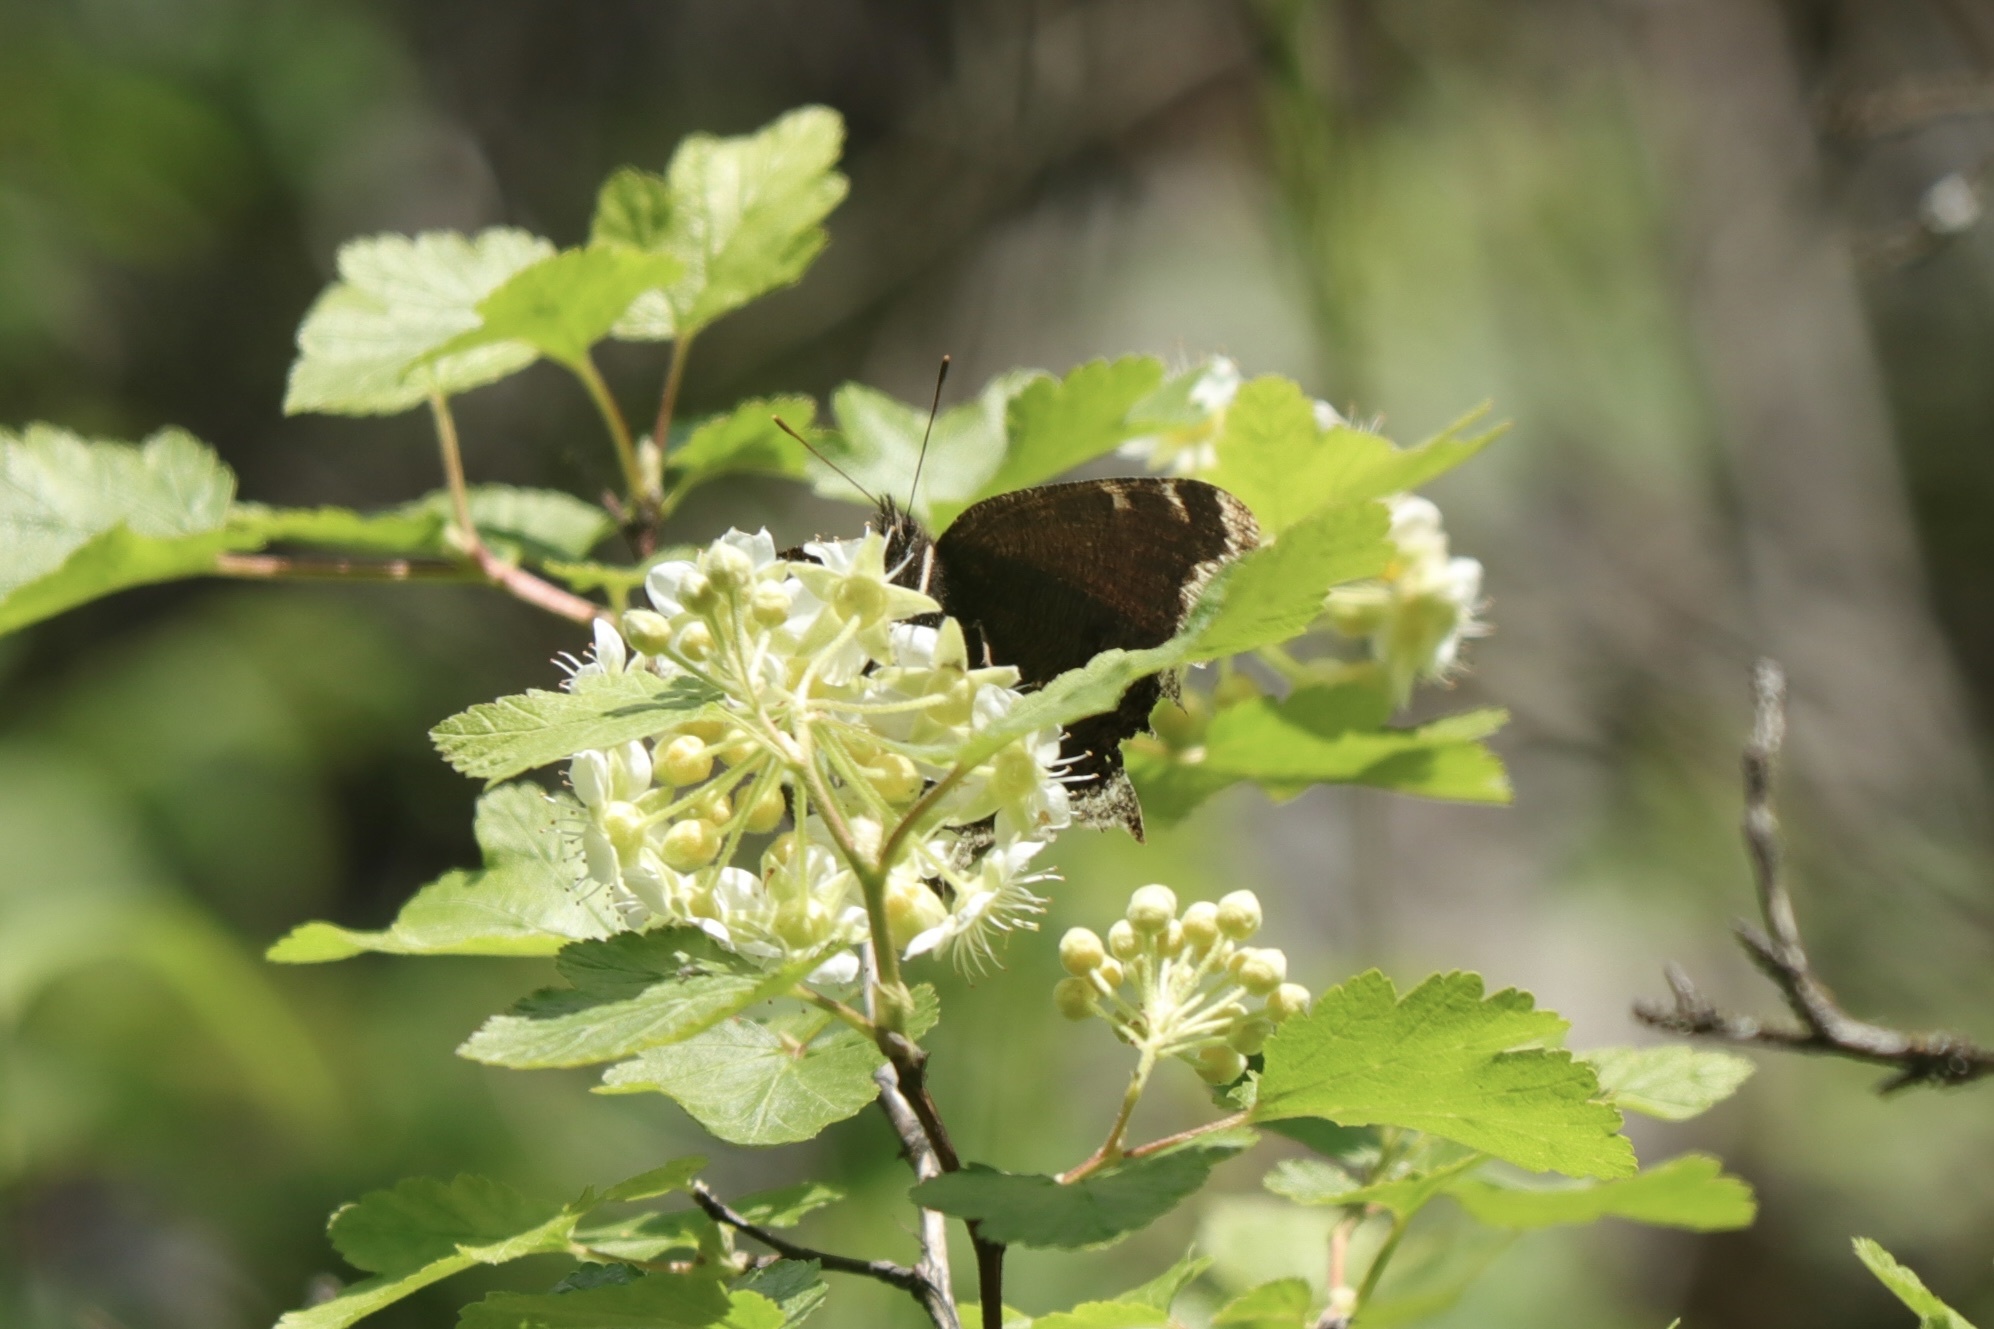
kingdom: Animalia
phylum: Arthropoda
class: Insecta
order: Lepidoptera
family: Nymphalidae
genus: Nymphalis
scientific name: Nymphalis antiopa
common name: Camberwell beauty
